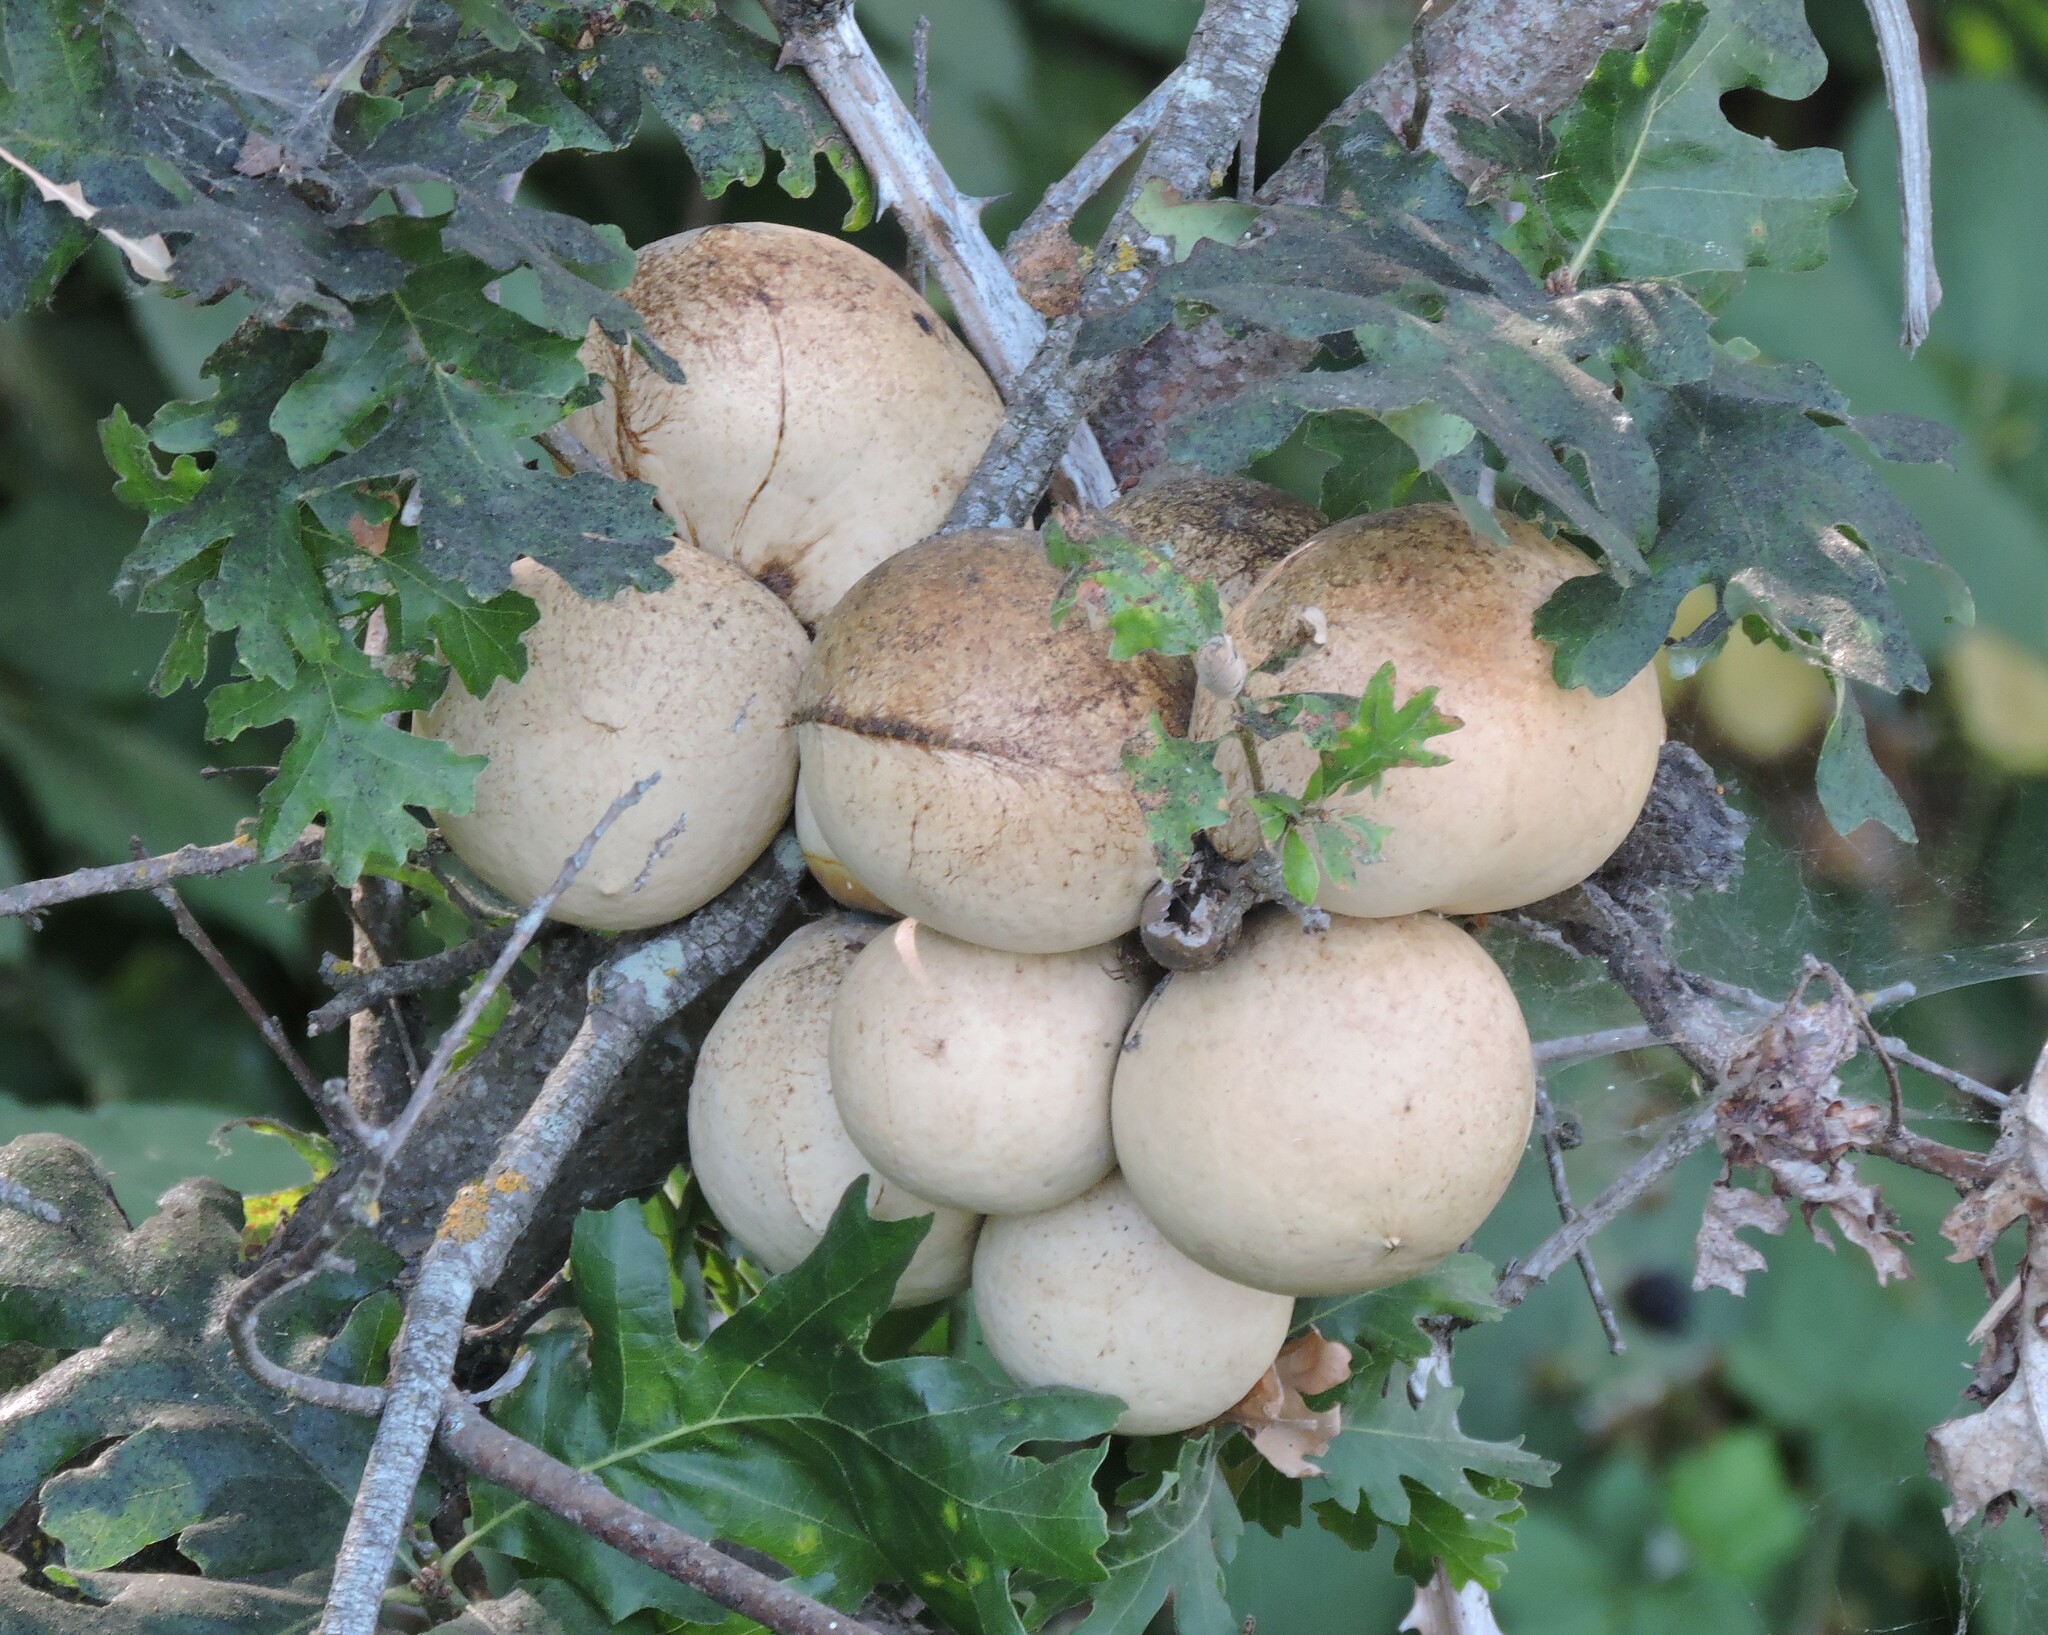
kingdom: Animalia
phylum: Arthropoda
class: Insecta
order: Hymenoptera
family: Cynipidae
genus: Andricus
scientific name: Andricus quercuscalifornicus
